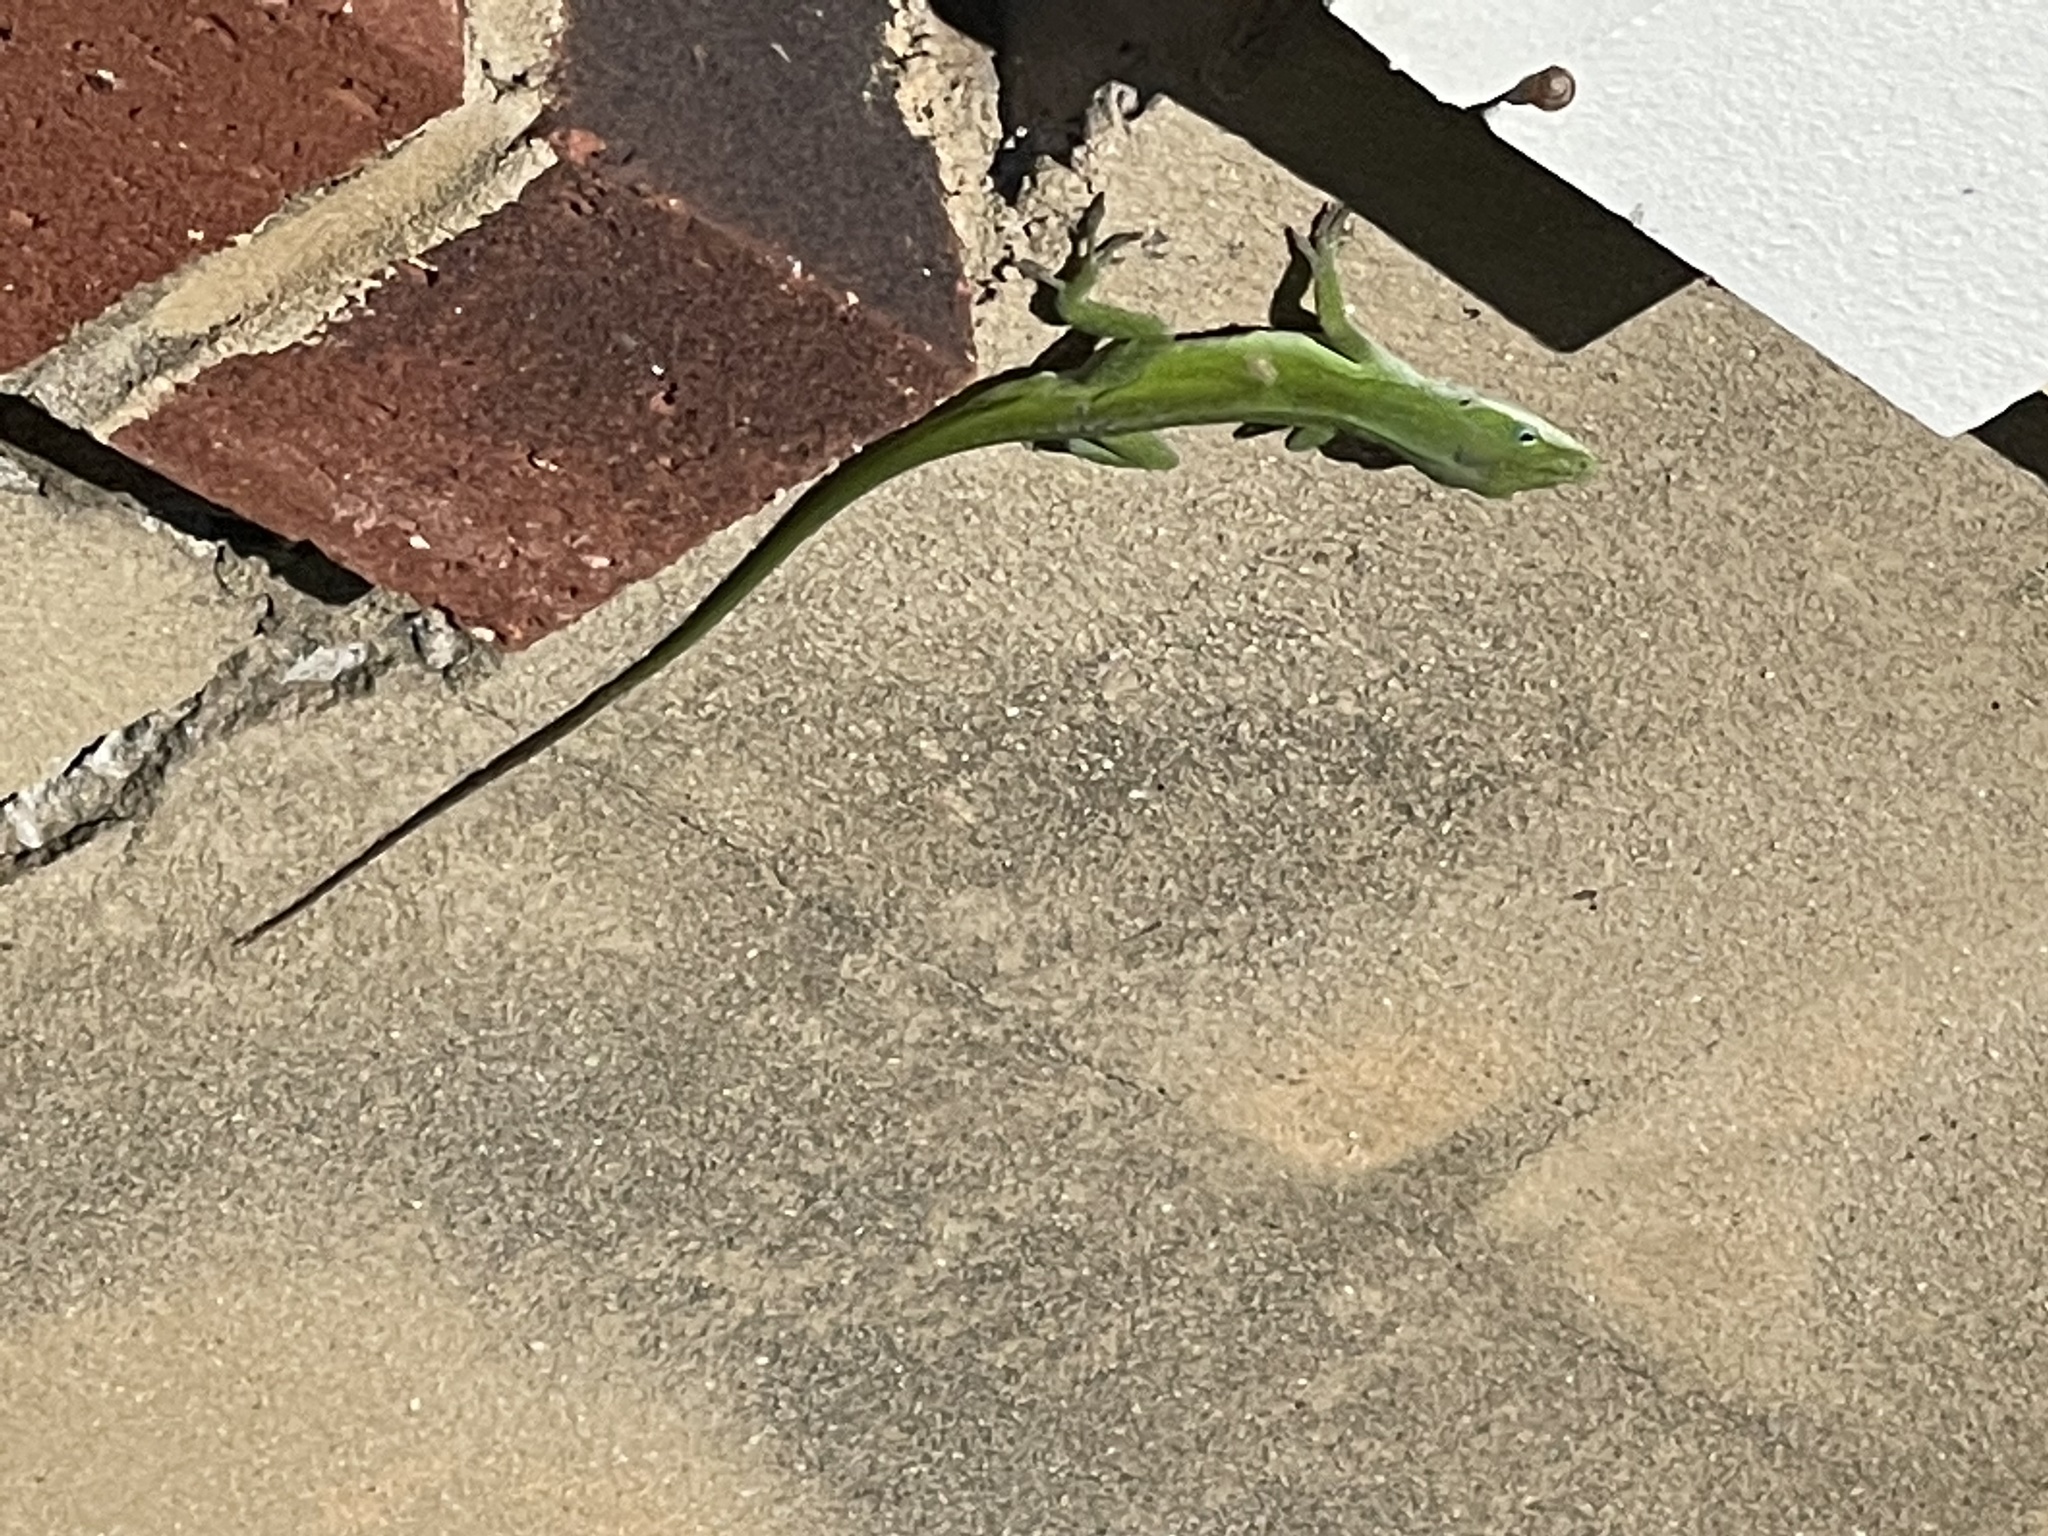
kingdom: Animalia
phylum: Chordata
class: Squamata
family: Dactyloidae
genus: Anolis
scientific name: Anolis carolinensis
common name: Green anole
